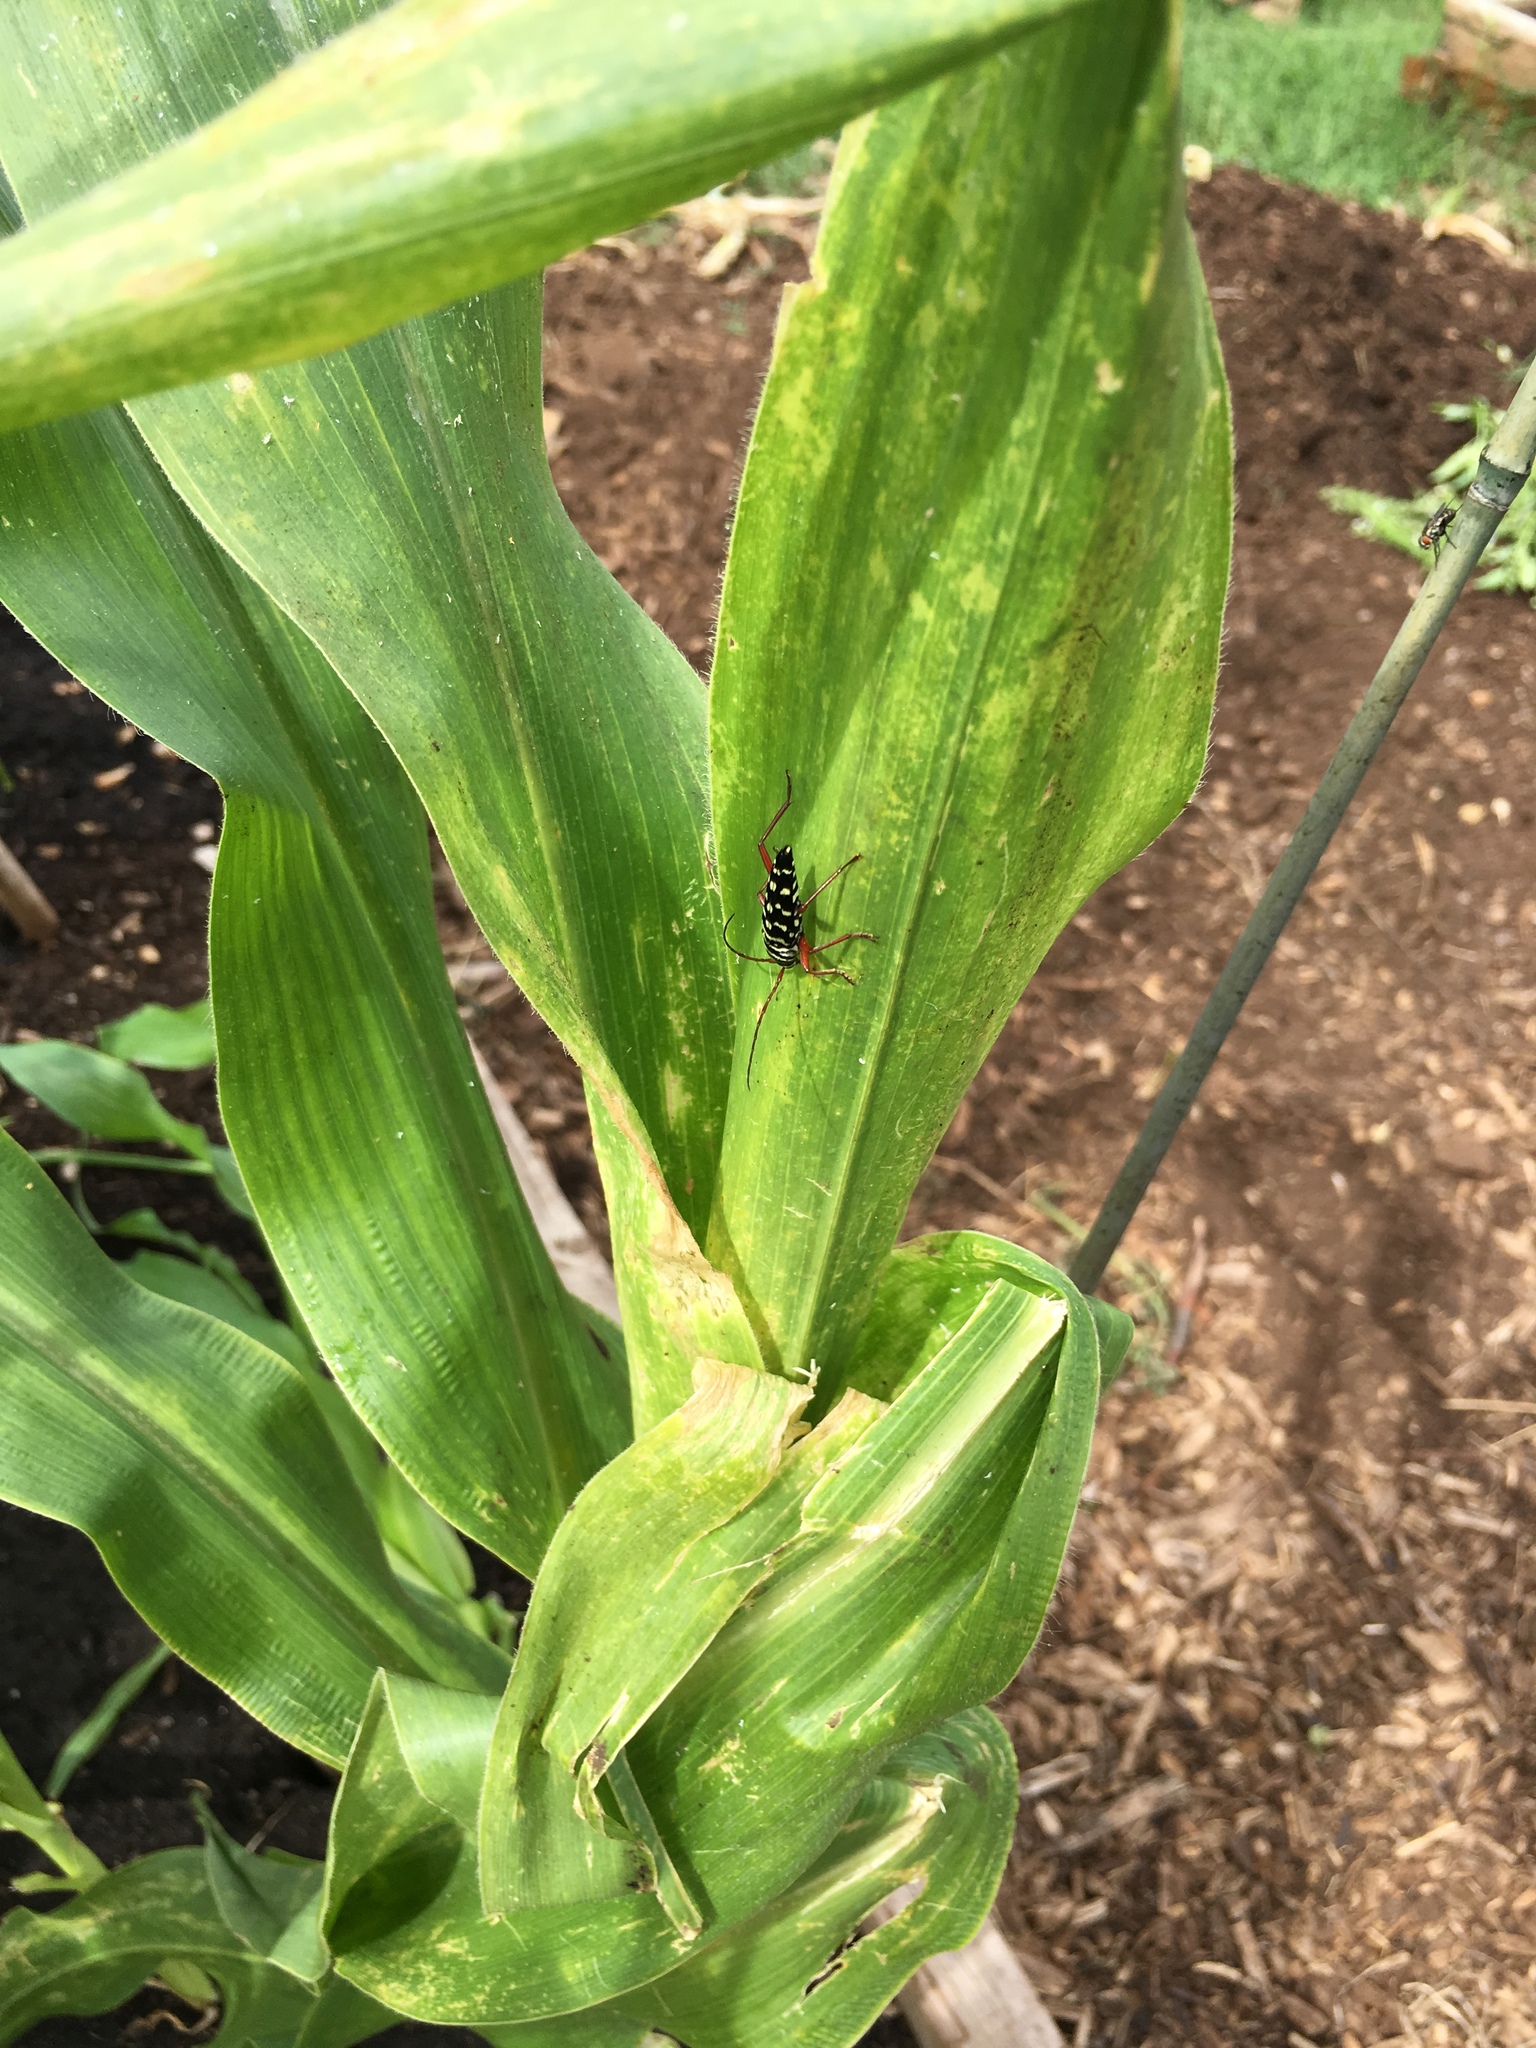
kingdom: Animalia
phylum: Arthropoda
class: Insecta
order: Coleoptera
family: Cerambycidae
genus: Placosternus
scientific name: Placosternus crinicornis
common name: Kiawe round headed borer
